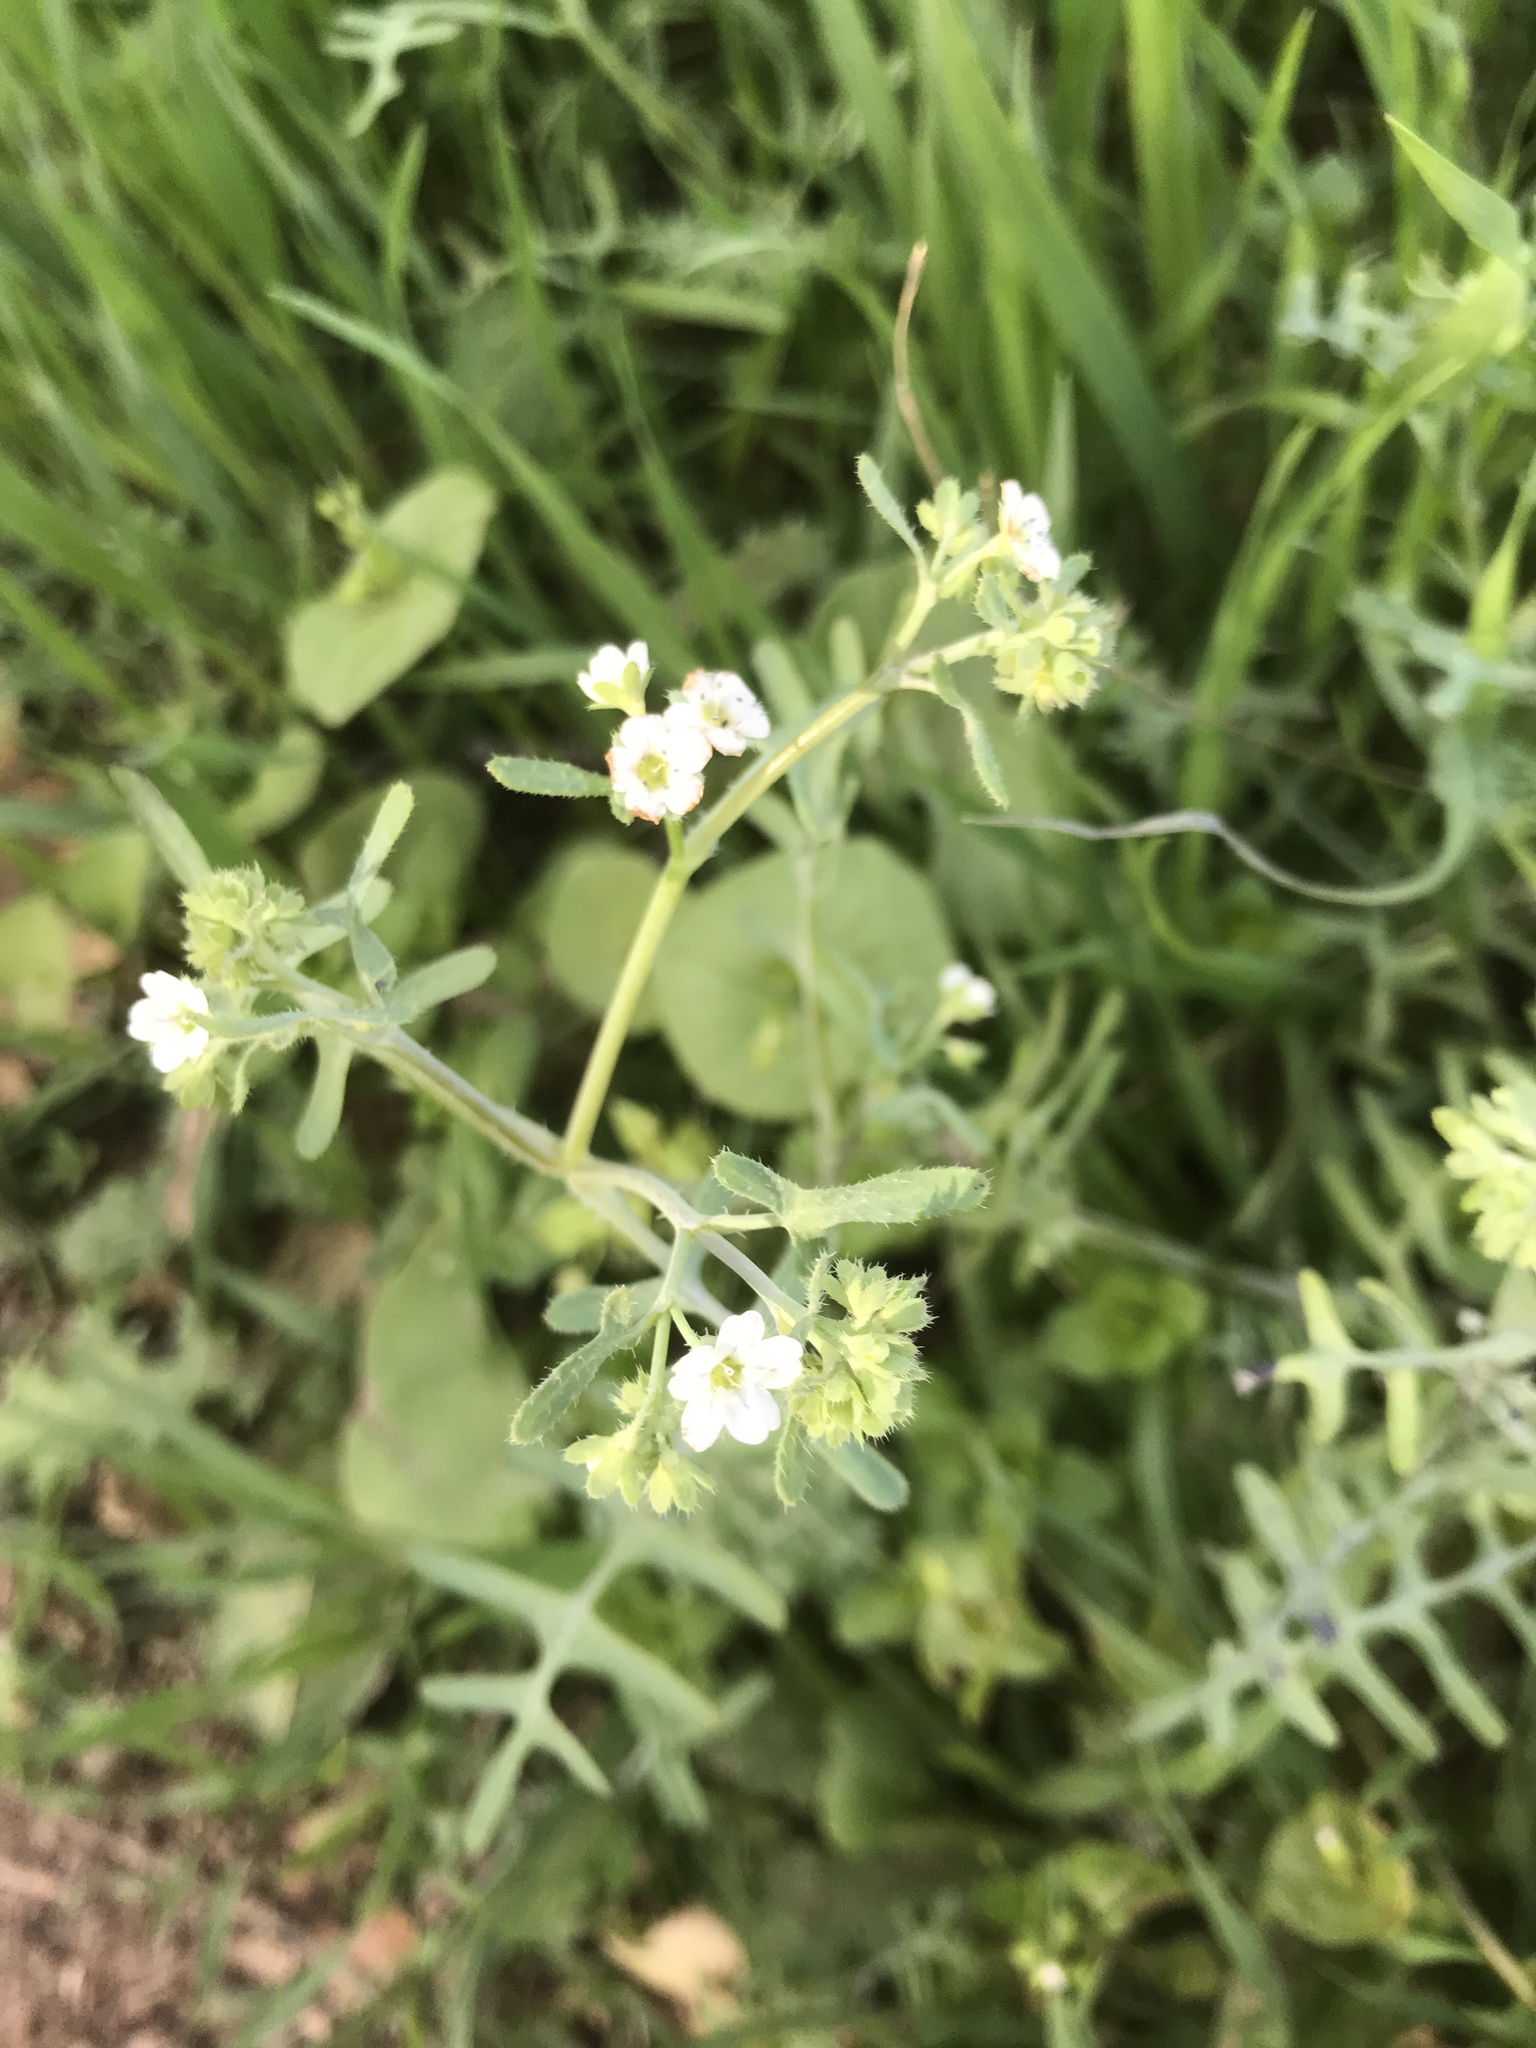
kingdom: Plantae
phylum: Tracheophyta
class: Magnoliopsida
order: Boraginales
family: Hydrophyllaceae
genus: Pholistoma
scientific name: Pholistoma membranaceum
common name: White fiesta-flower
